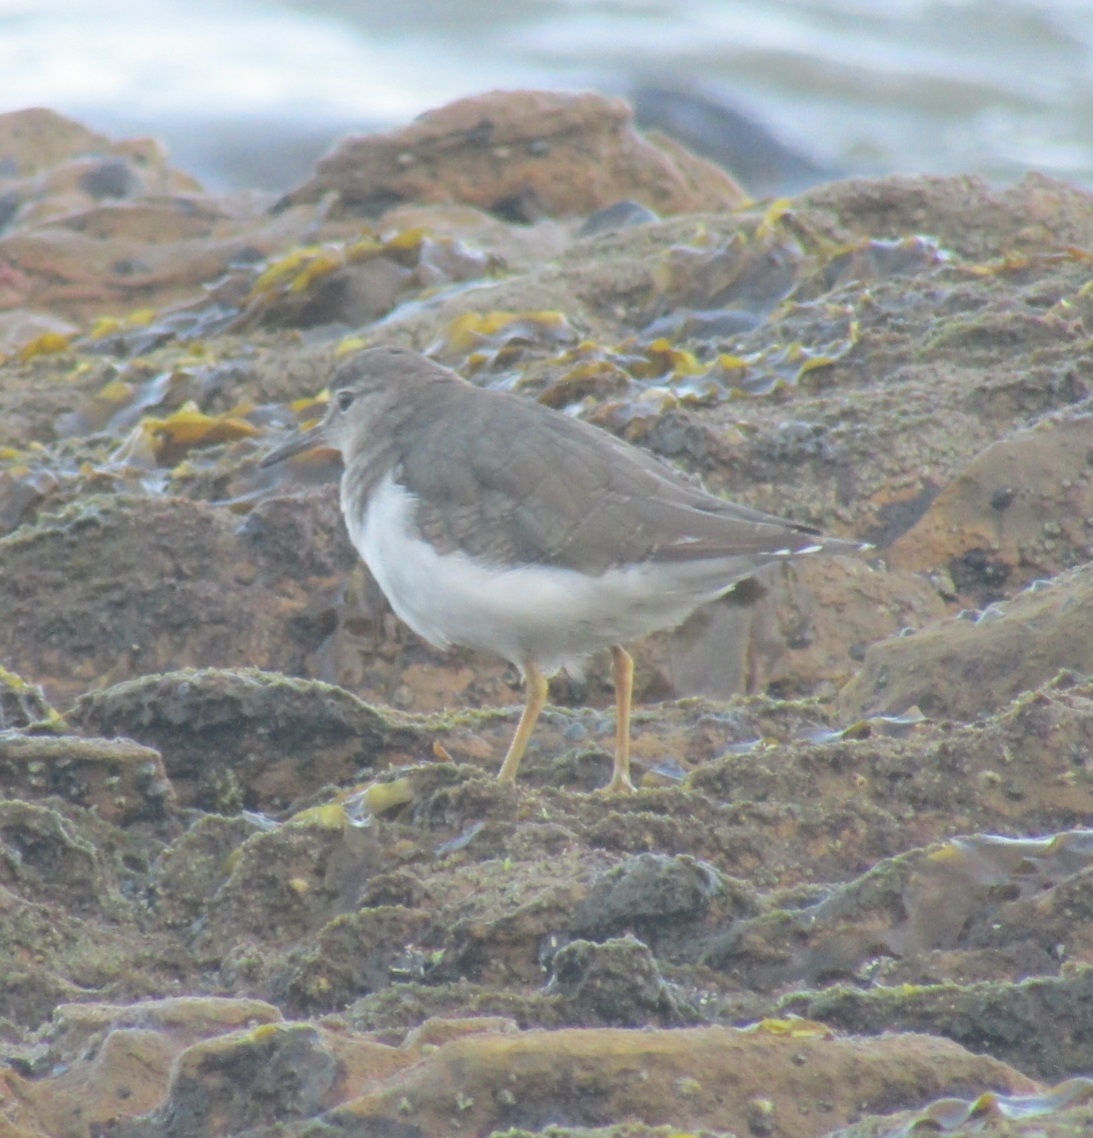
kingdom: Animalia
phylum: Chordata
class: Aves
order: Charadriiformes
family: Scolopacidae
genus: Actitis
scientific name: Actitis macularius
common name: Spotted sandpiper
